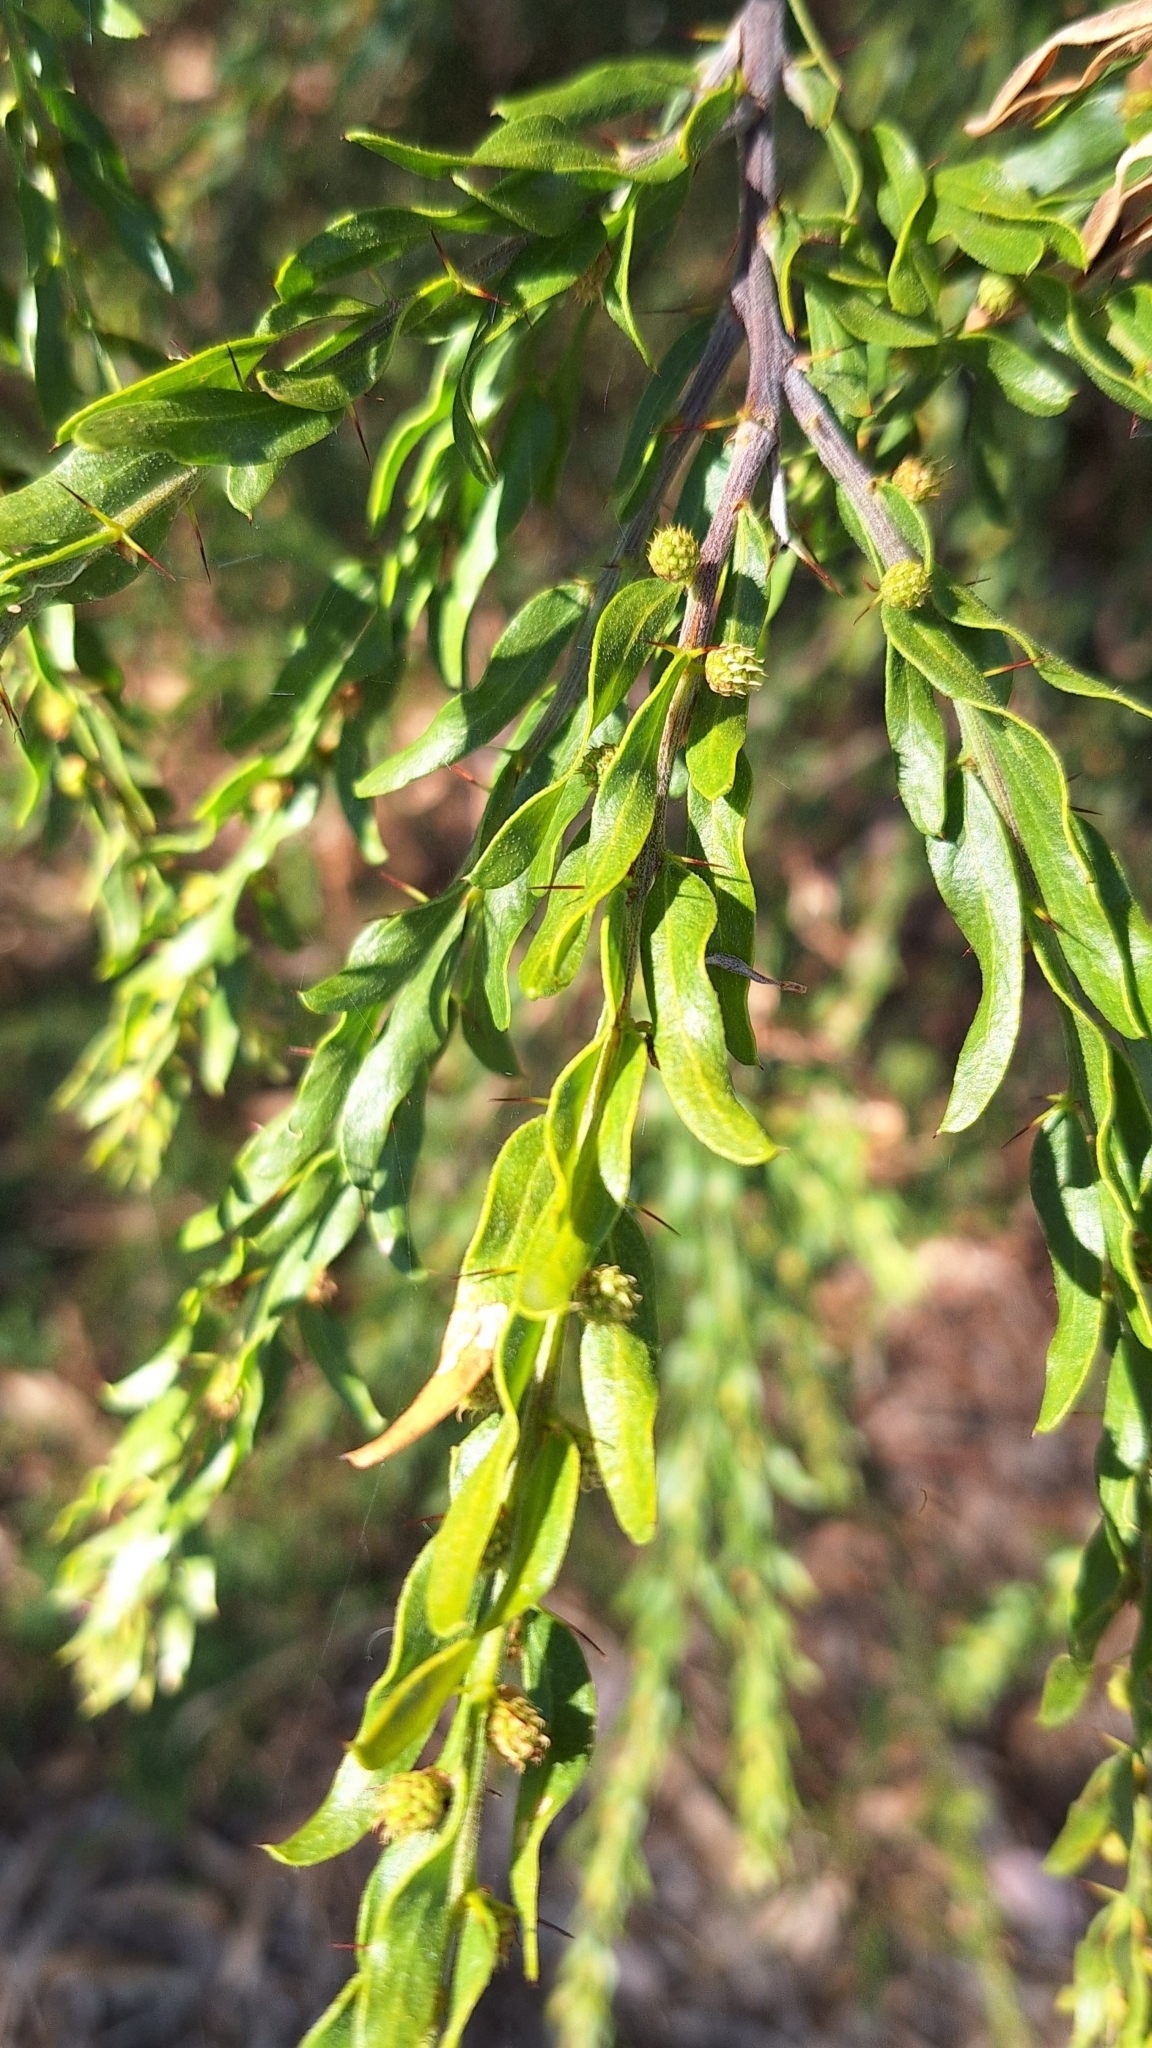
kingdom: Plantae
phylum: Tracheophyta
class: Magnoliopsida
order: Fabales
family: Fabaceae
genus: Acacia
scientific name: Acacia paradoxa
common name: Paradox acacia
